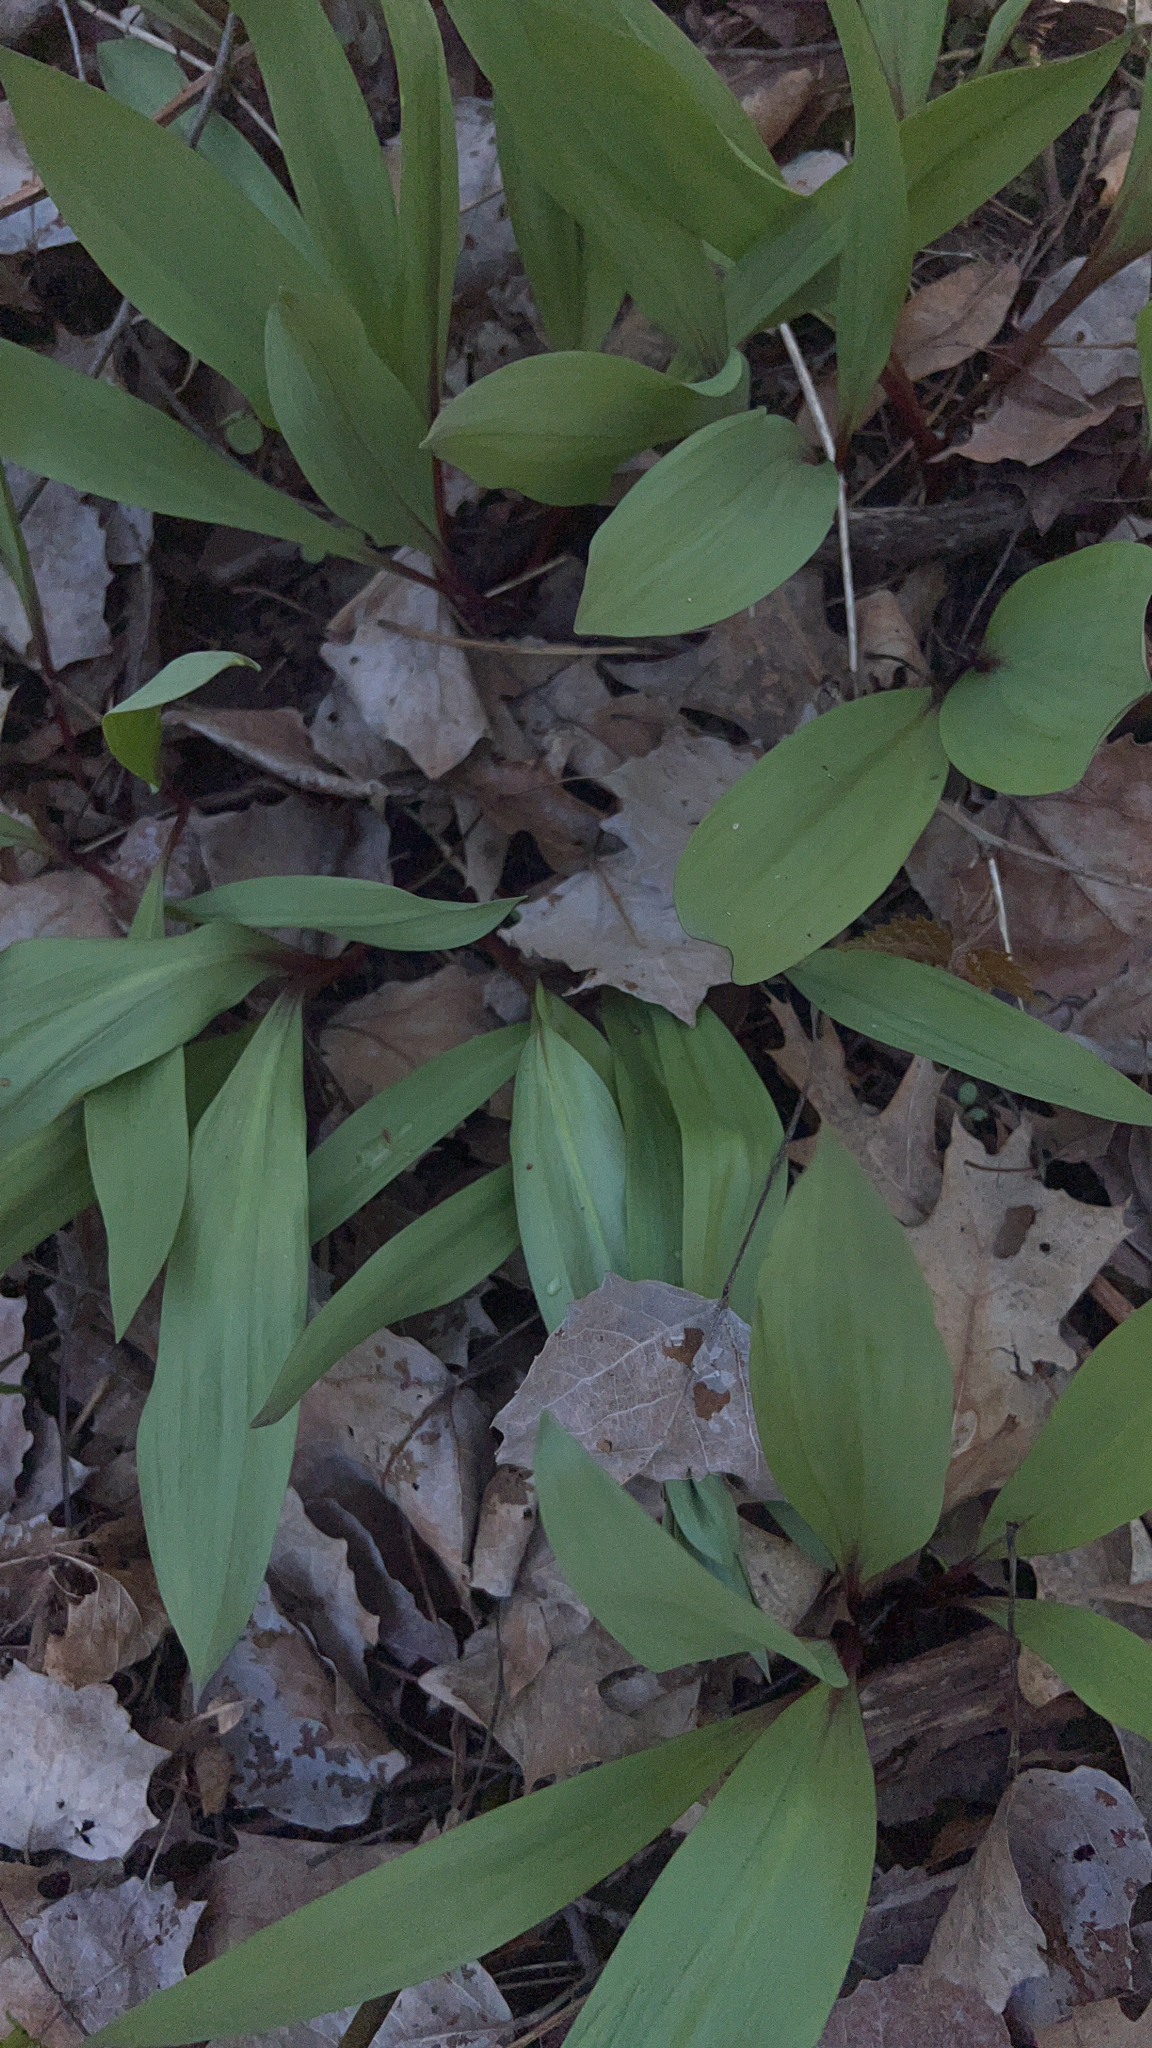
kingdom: Plantae
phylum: Tracheophyta
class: Liliopsida
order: Asparagales
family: Amaryllidaceae
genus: Allium
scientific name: Allium tricoccum
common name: Ramp
